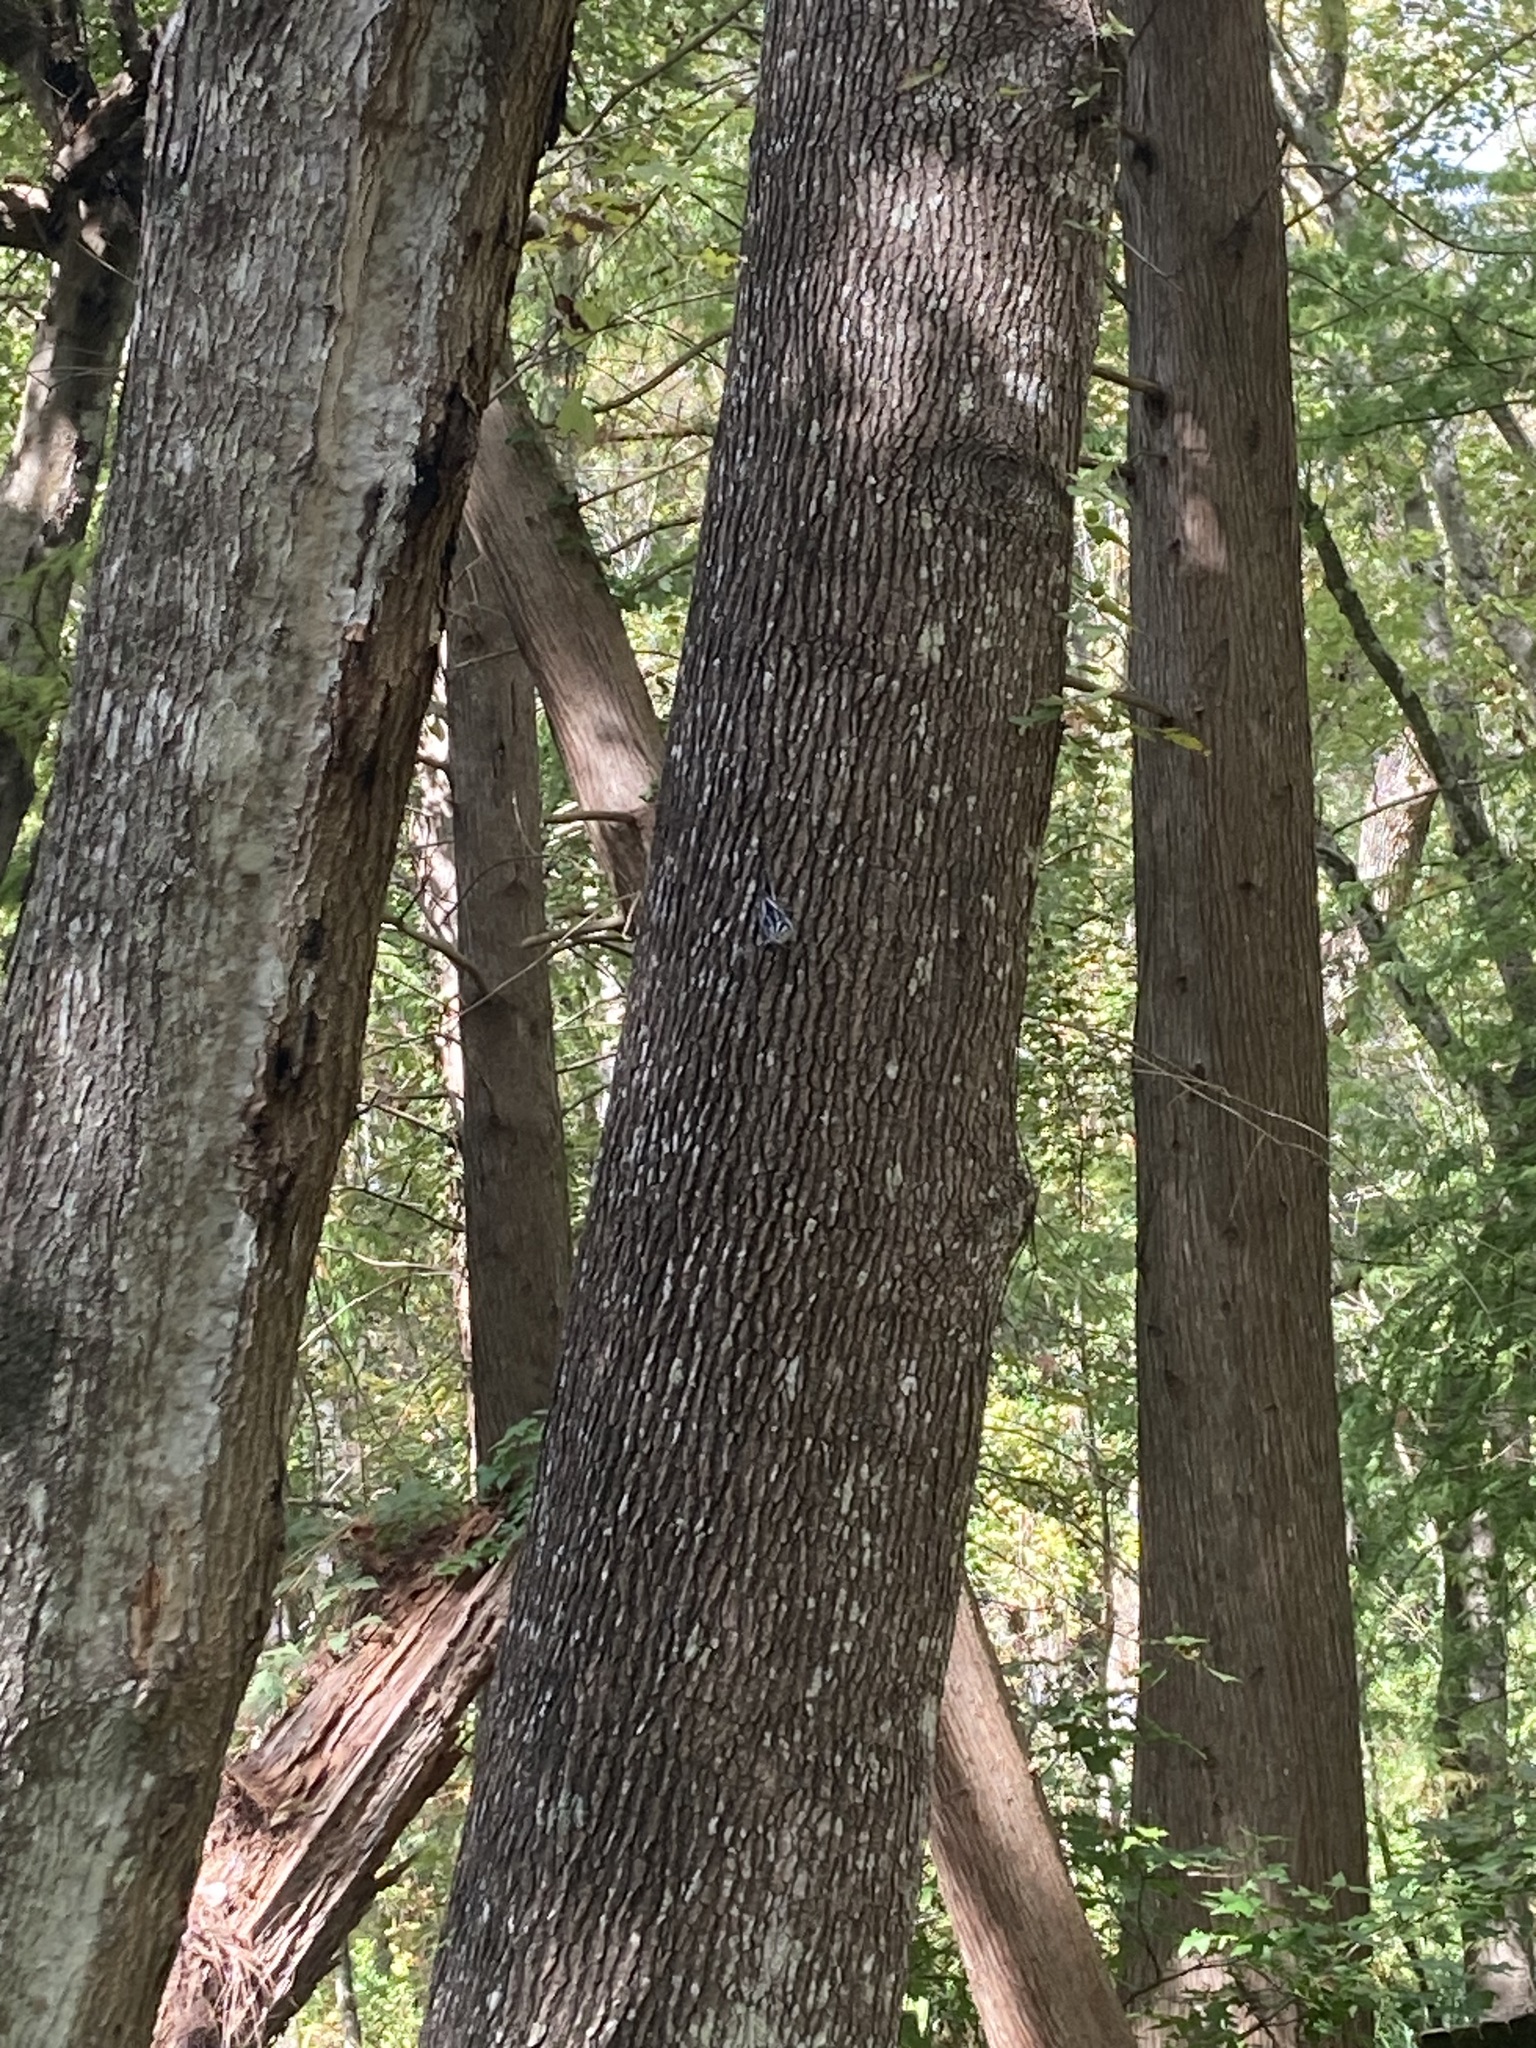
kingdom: Animalia
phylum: Chordata
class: Aves
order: Passeriformes
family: Parulidae
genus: Mniotilta
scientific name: Mniotilta varia
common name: Black-and-white warbler
